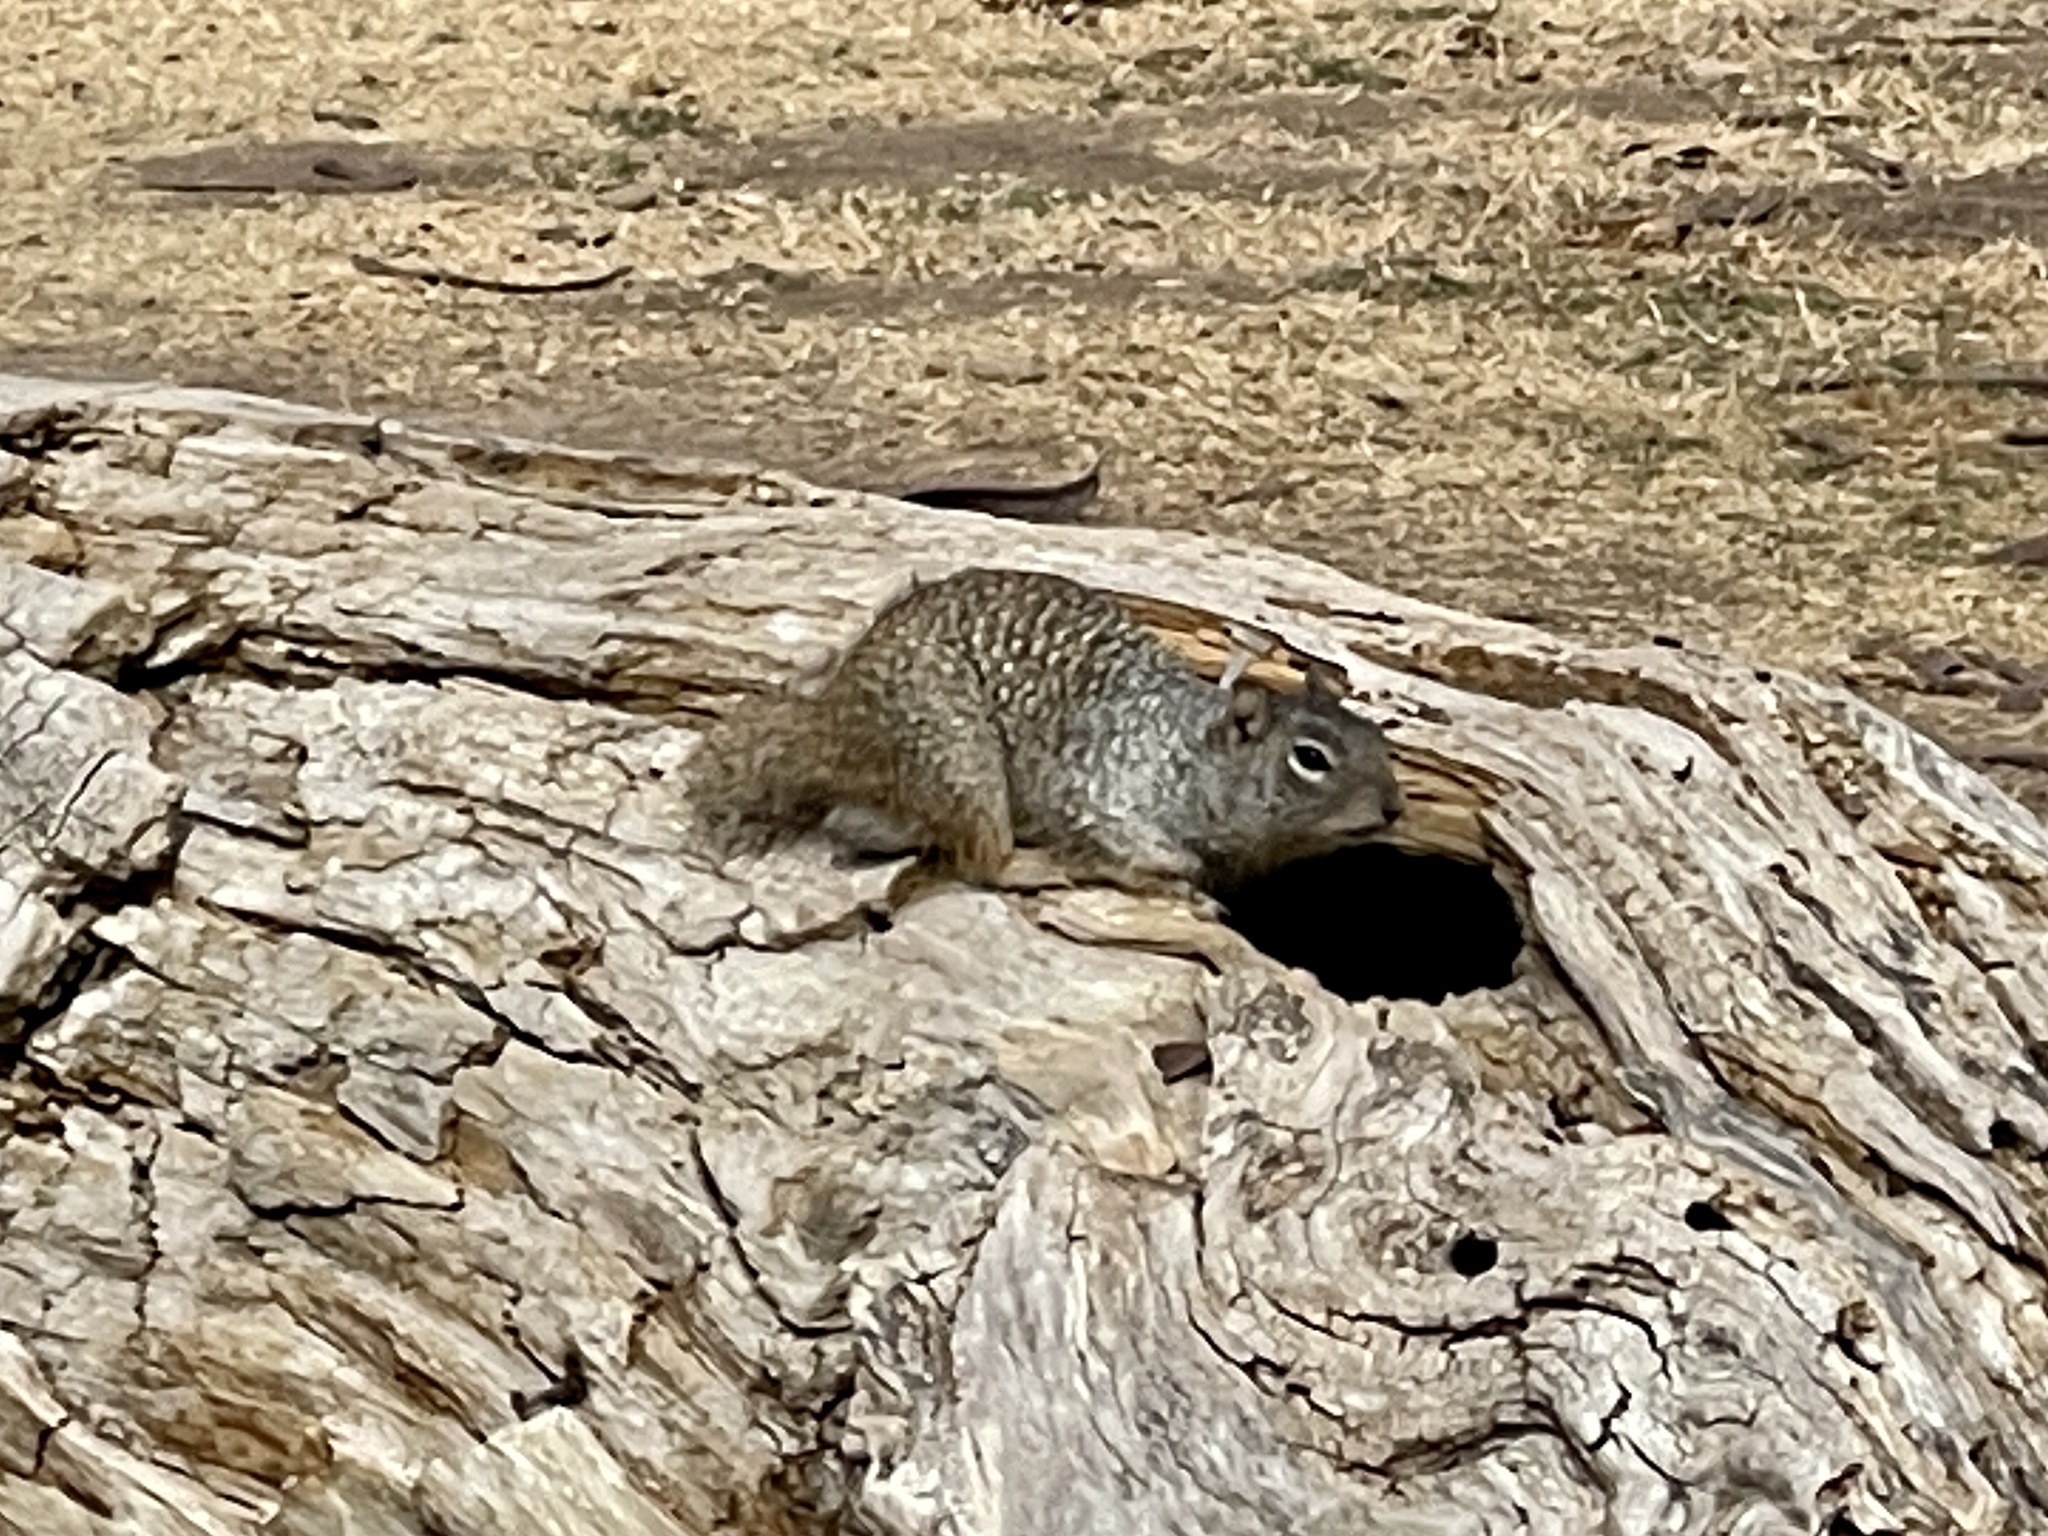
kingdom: Animalia
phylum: Chordata
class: Mammalia
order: Rodentia
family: Sciuridae
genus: Otospermophilus
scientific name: Otospermophilus variegatus
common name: Rock squirrel
